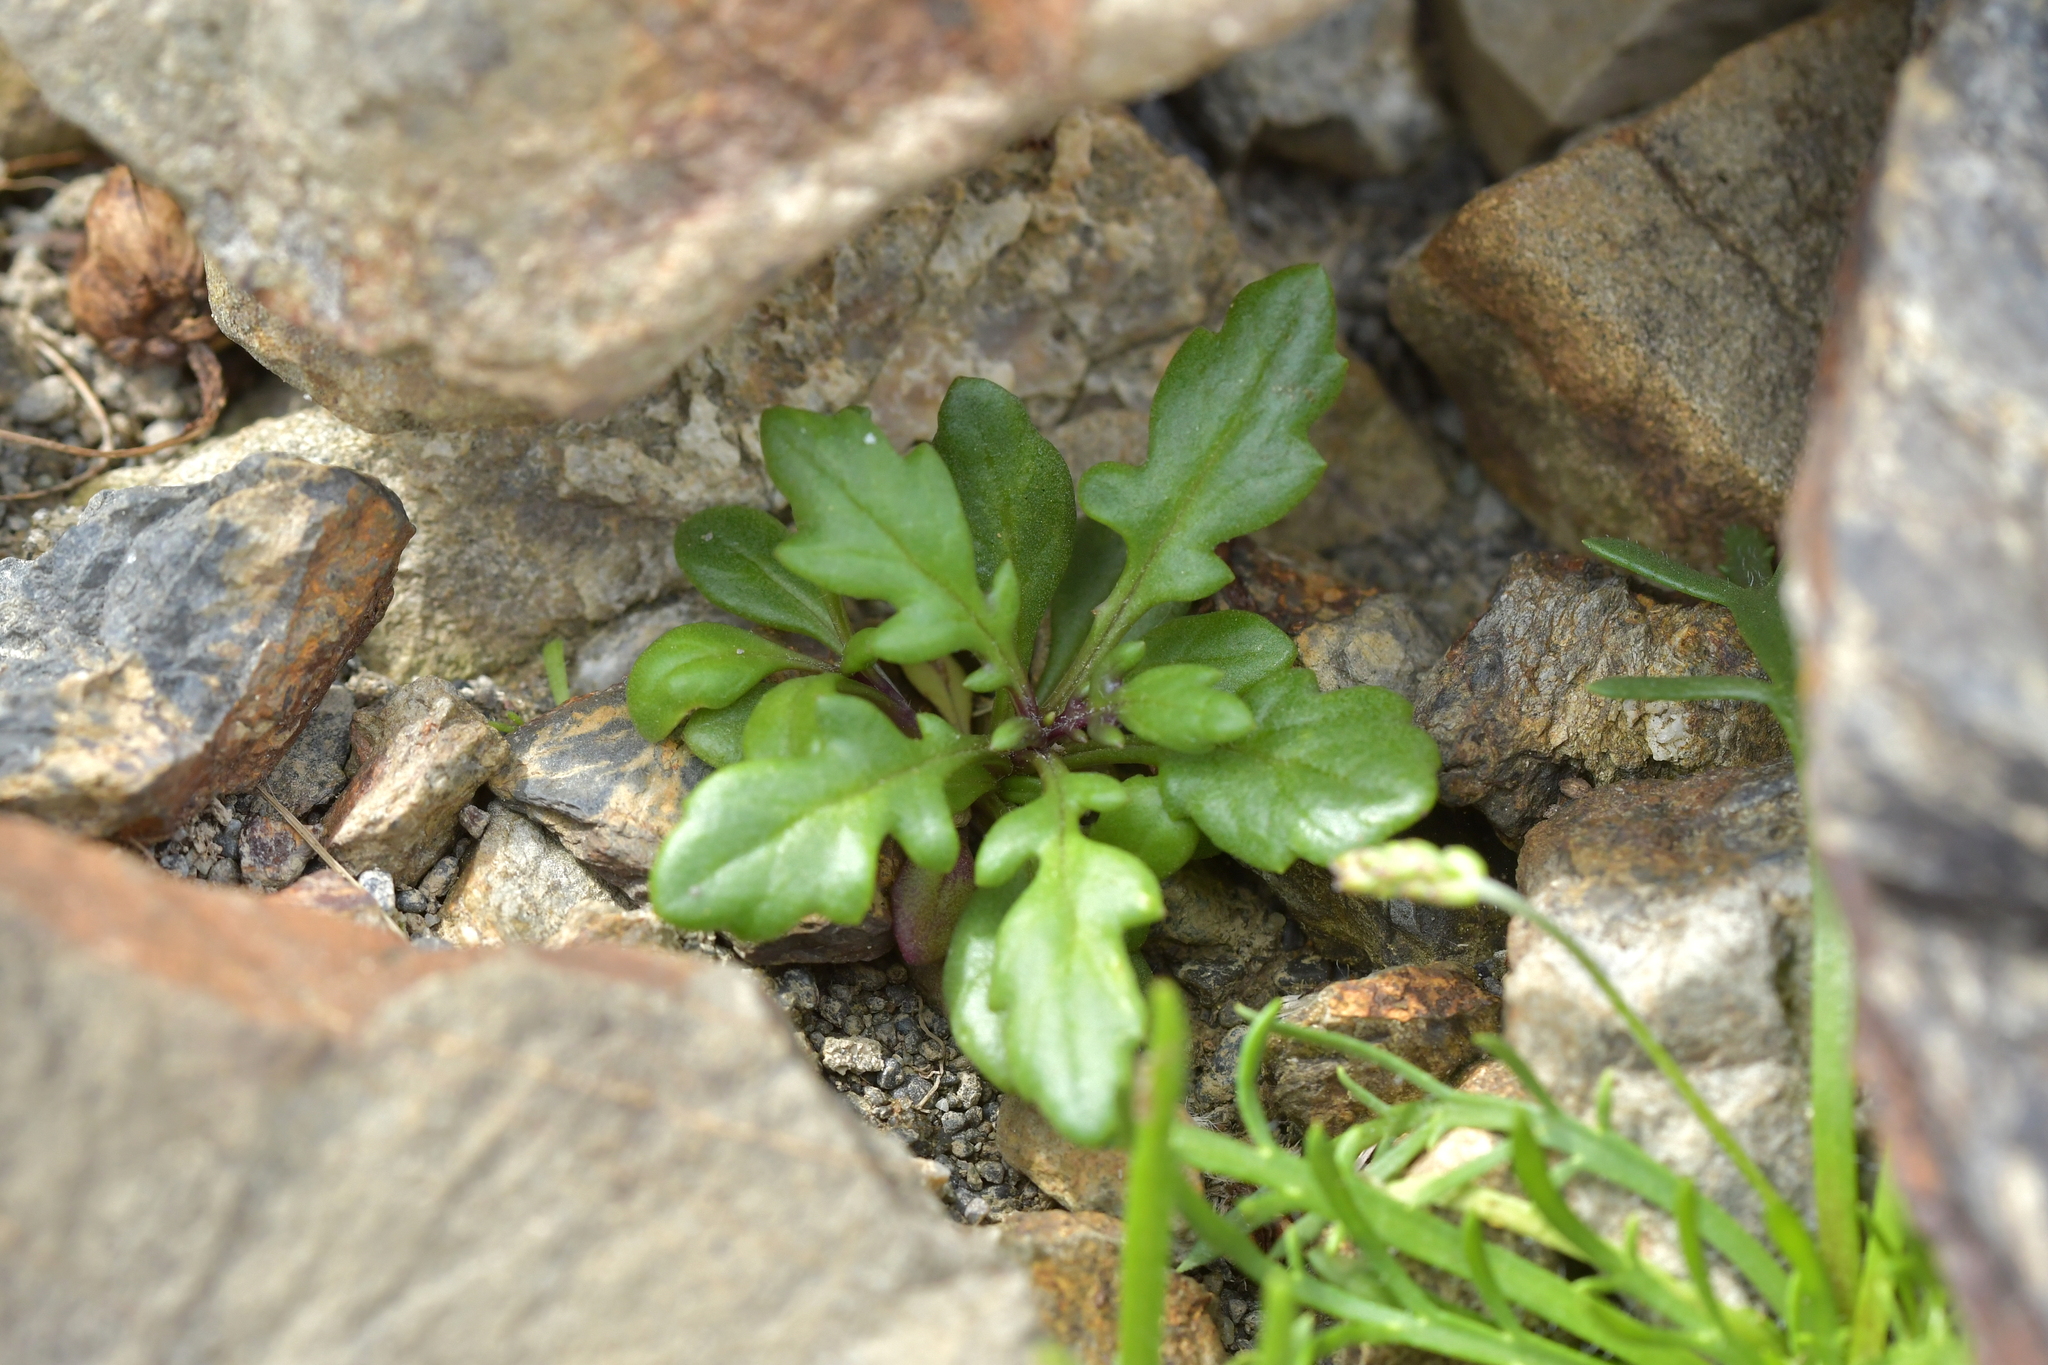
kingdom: Plantae
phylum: Tracheophyta
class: Magnoliopsida
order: Asterales
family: Asteraceae
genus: Senecio
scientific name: Senecio lautus
